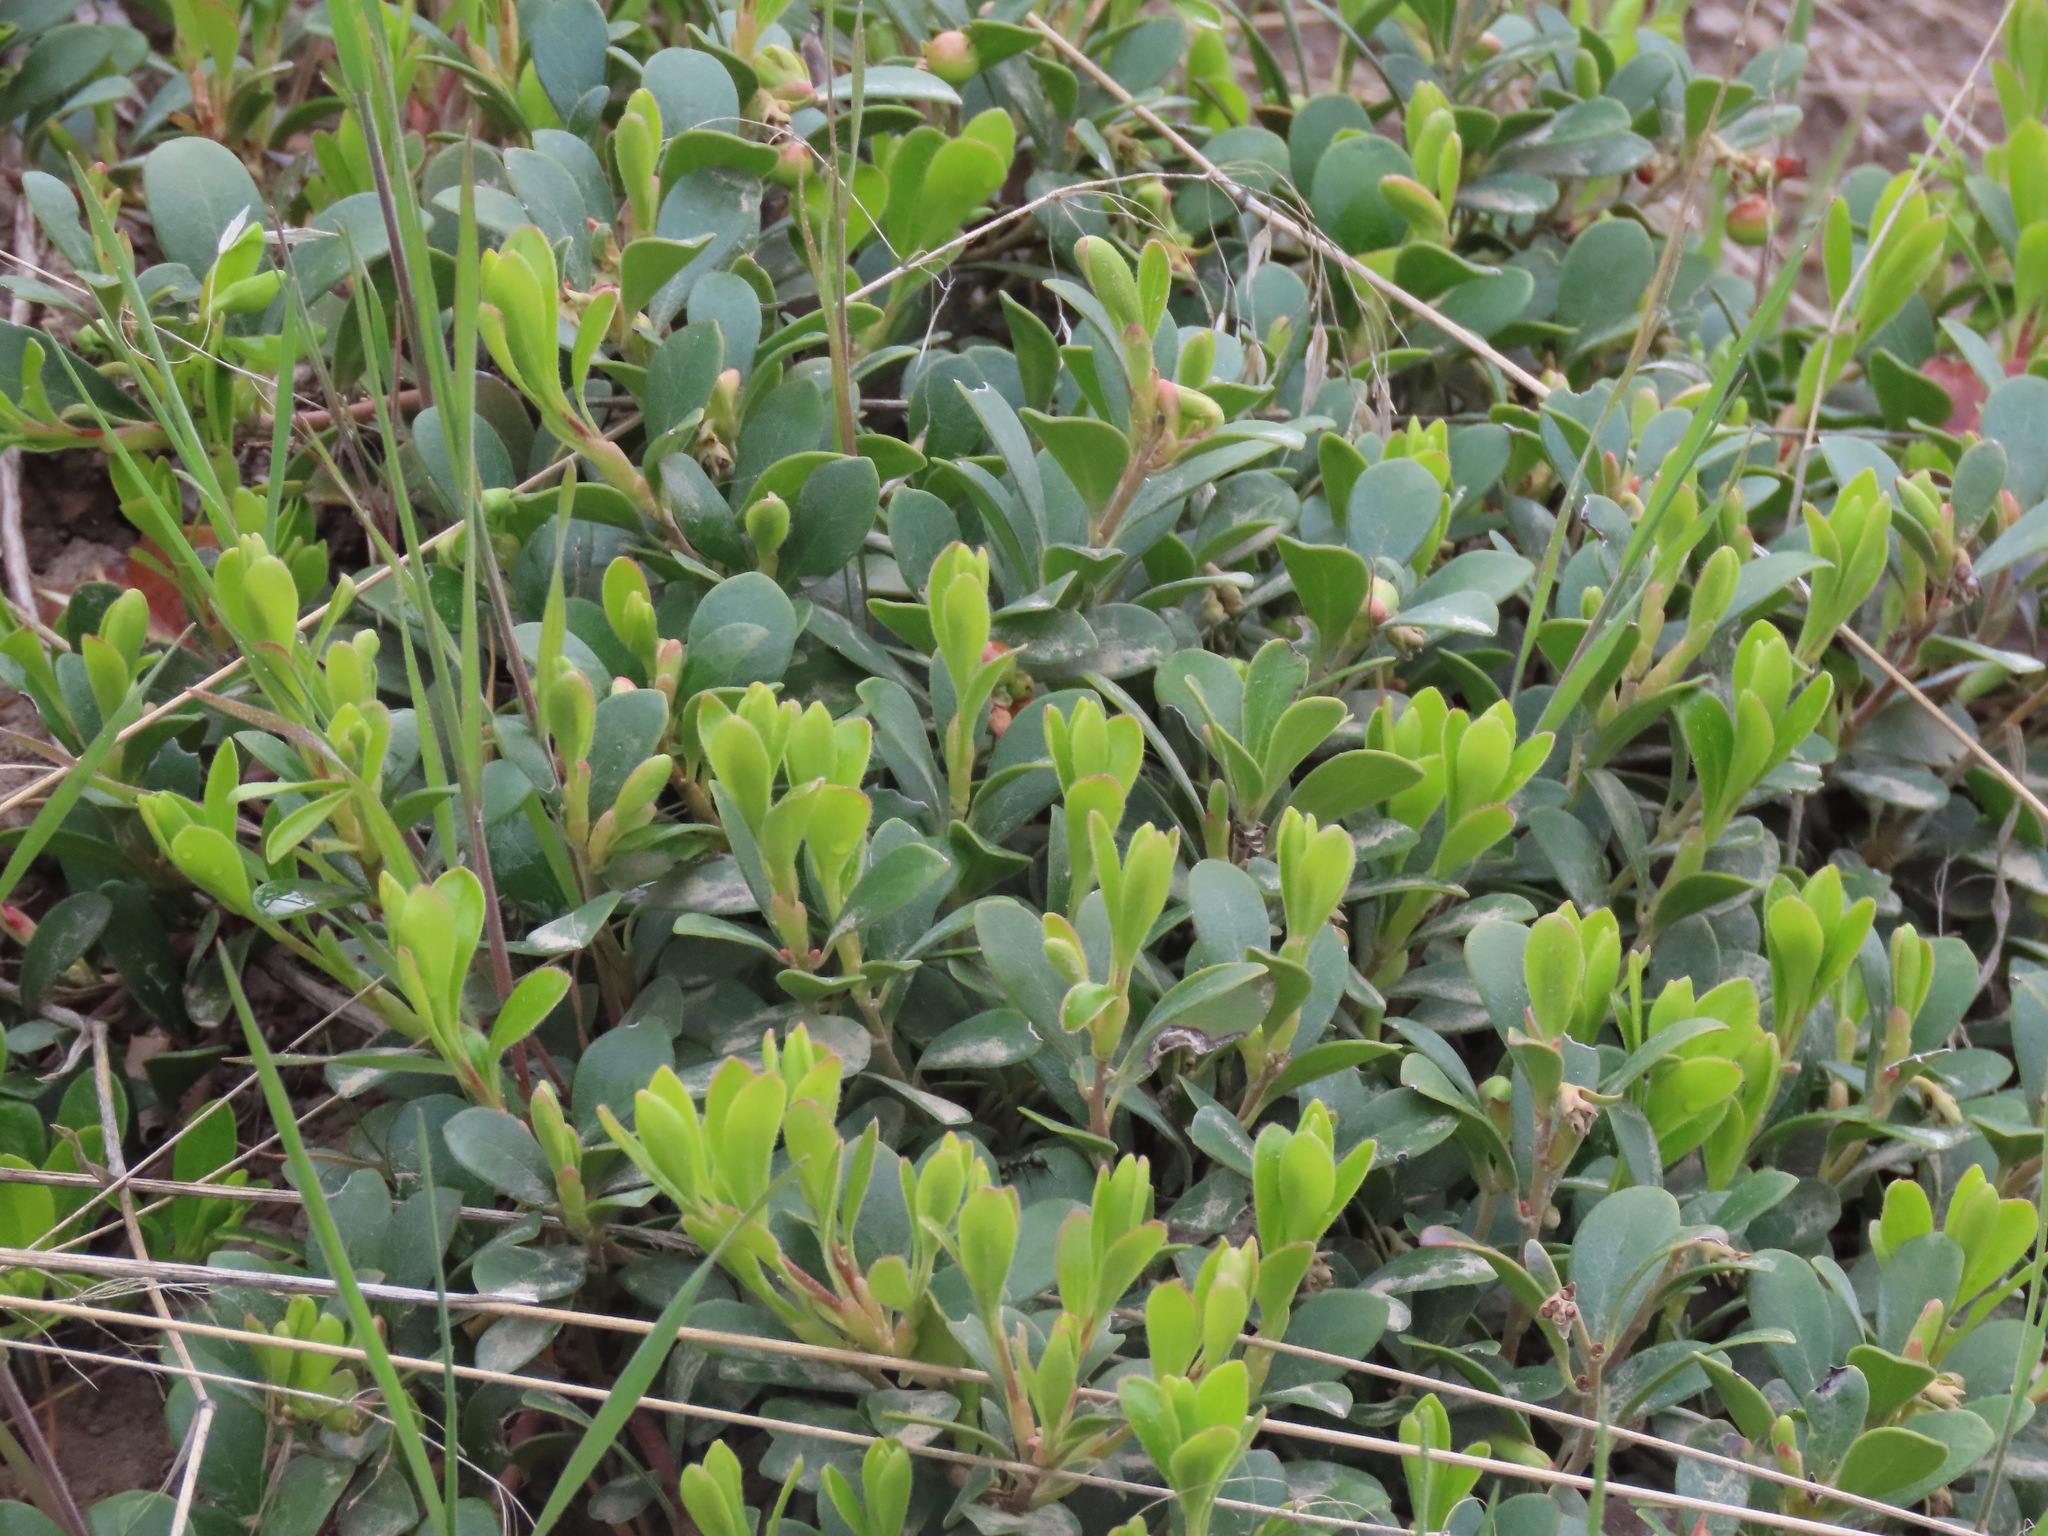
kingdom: Plantae
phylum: Tracheophyta
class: Magnoliopsida
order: Ericales
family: Ericaceae
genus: Arctostaphylos
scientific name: Arctostaphylos uva-ursi
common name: Bearberry
